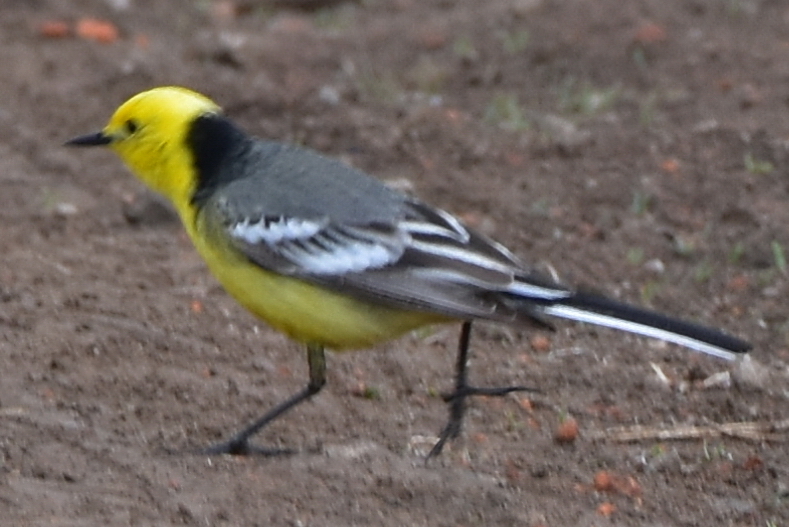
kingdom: Animalia
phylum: Chordata
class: Aves
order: Passeriformes
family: Motacillidae
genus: Motacilla
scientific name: Motacilla citreola
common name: Citrine wagtail
